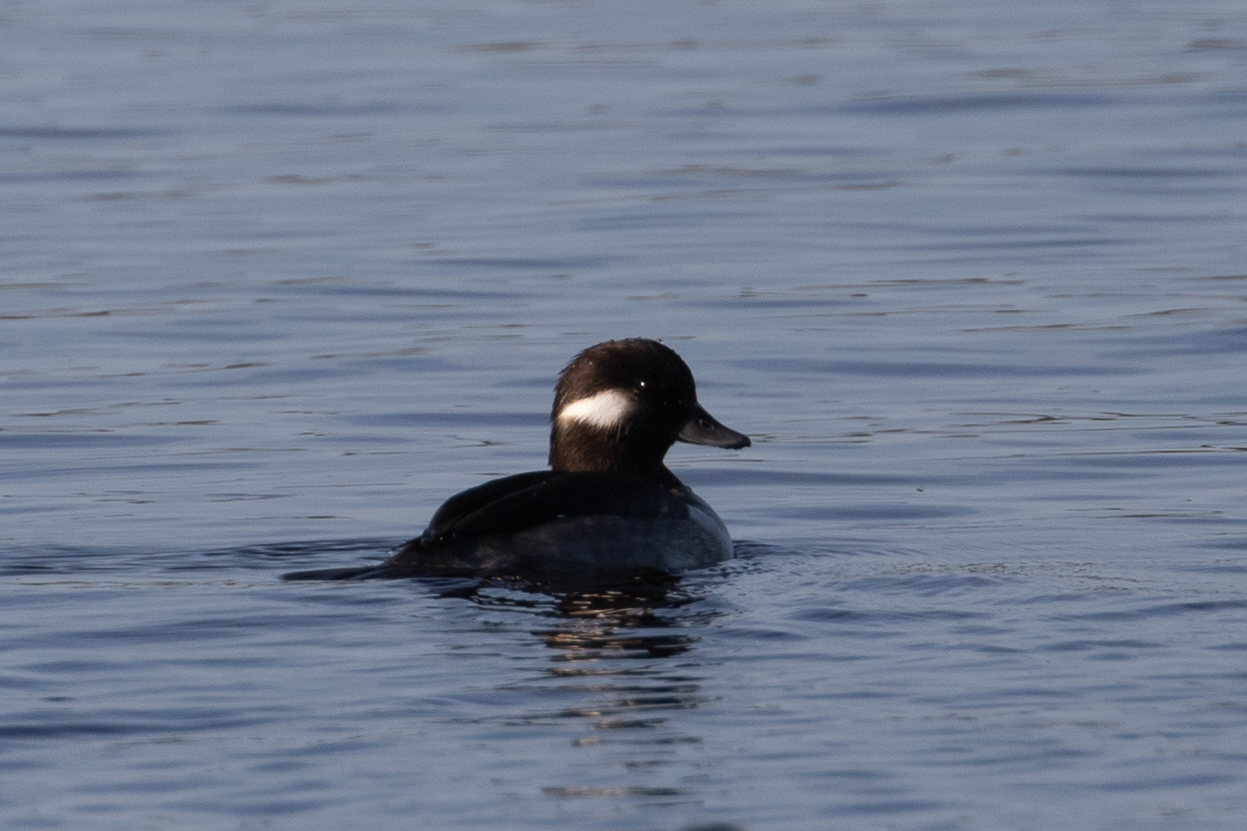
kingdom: Animalia
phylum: Chordata
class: Aves
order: Anseriformes
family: Anatidae
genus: Bucephala
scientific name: Bucephala albeola
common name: Bufflehead
